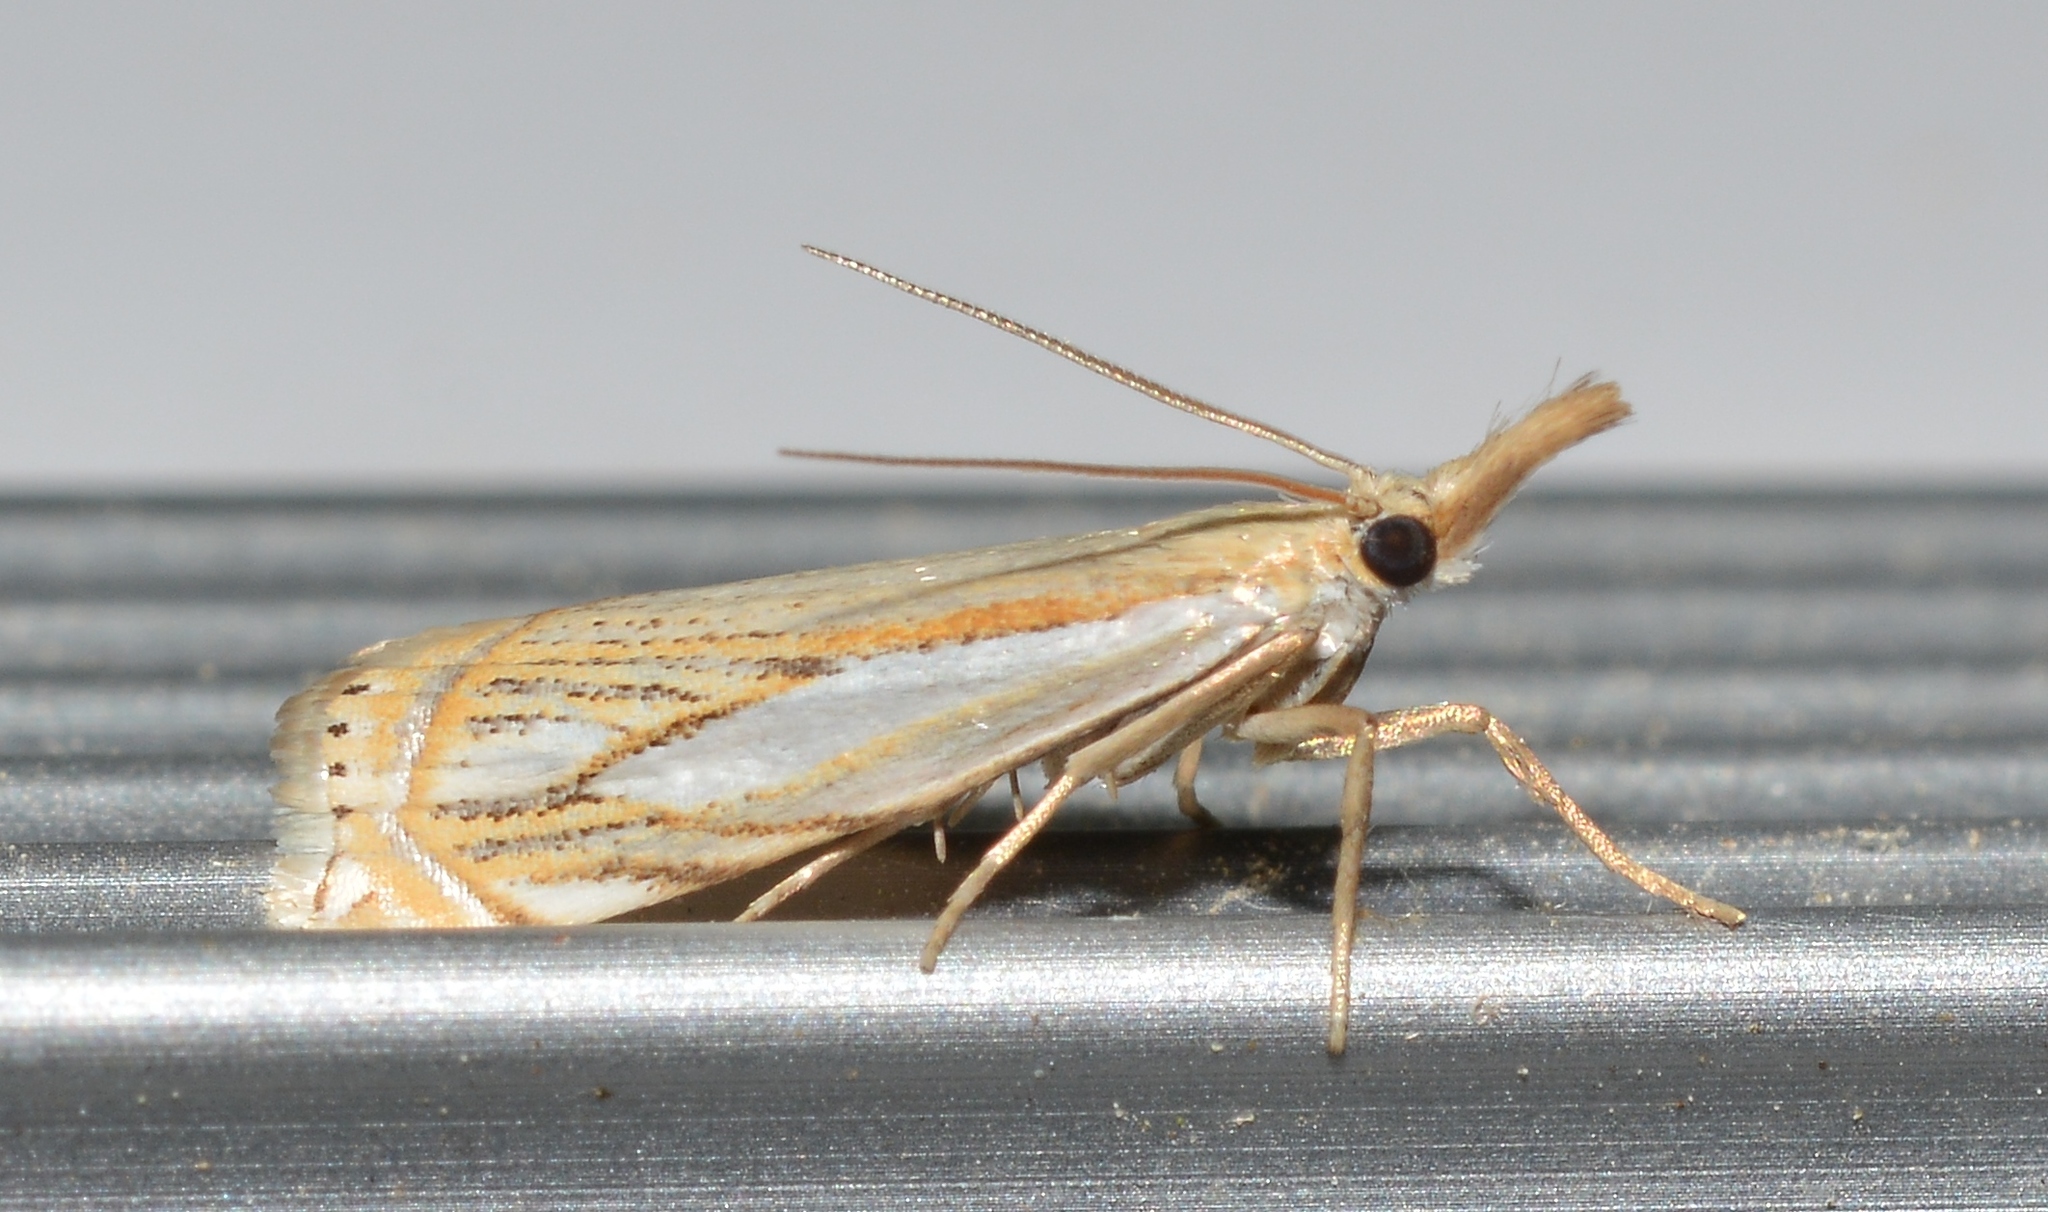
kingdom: Animalia
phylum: Arthropoda
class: Insecta
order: Lepidoptera
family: Crambidae
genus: Crambus
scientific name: Crambus saltuellus
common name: Pasture grass-veneer
